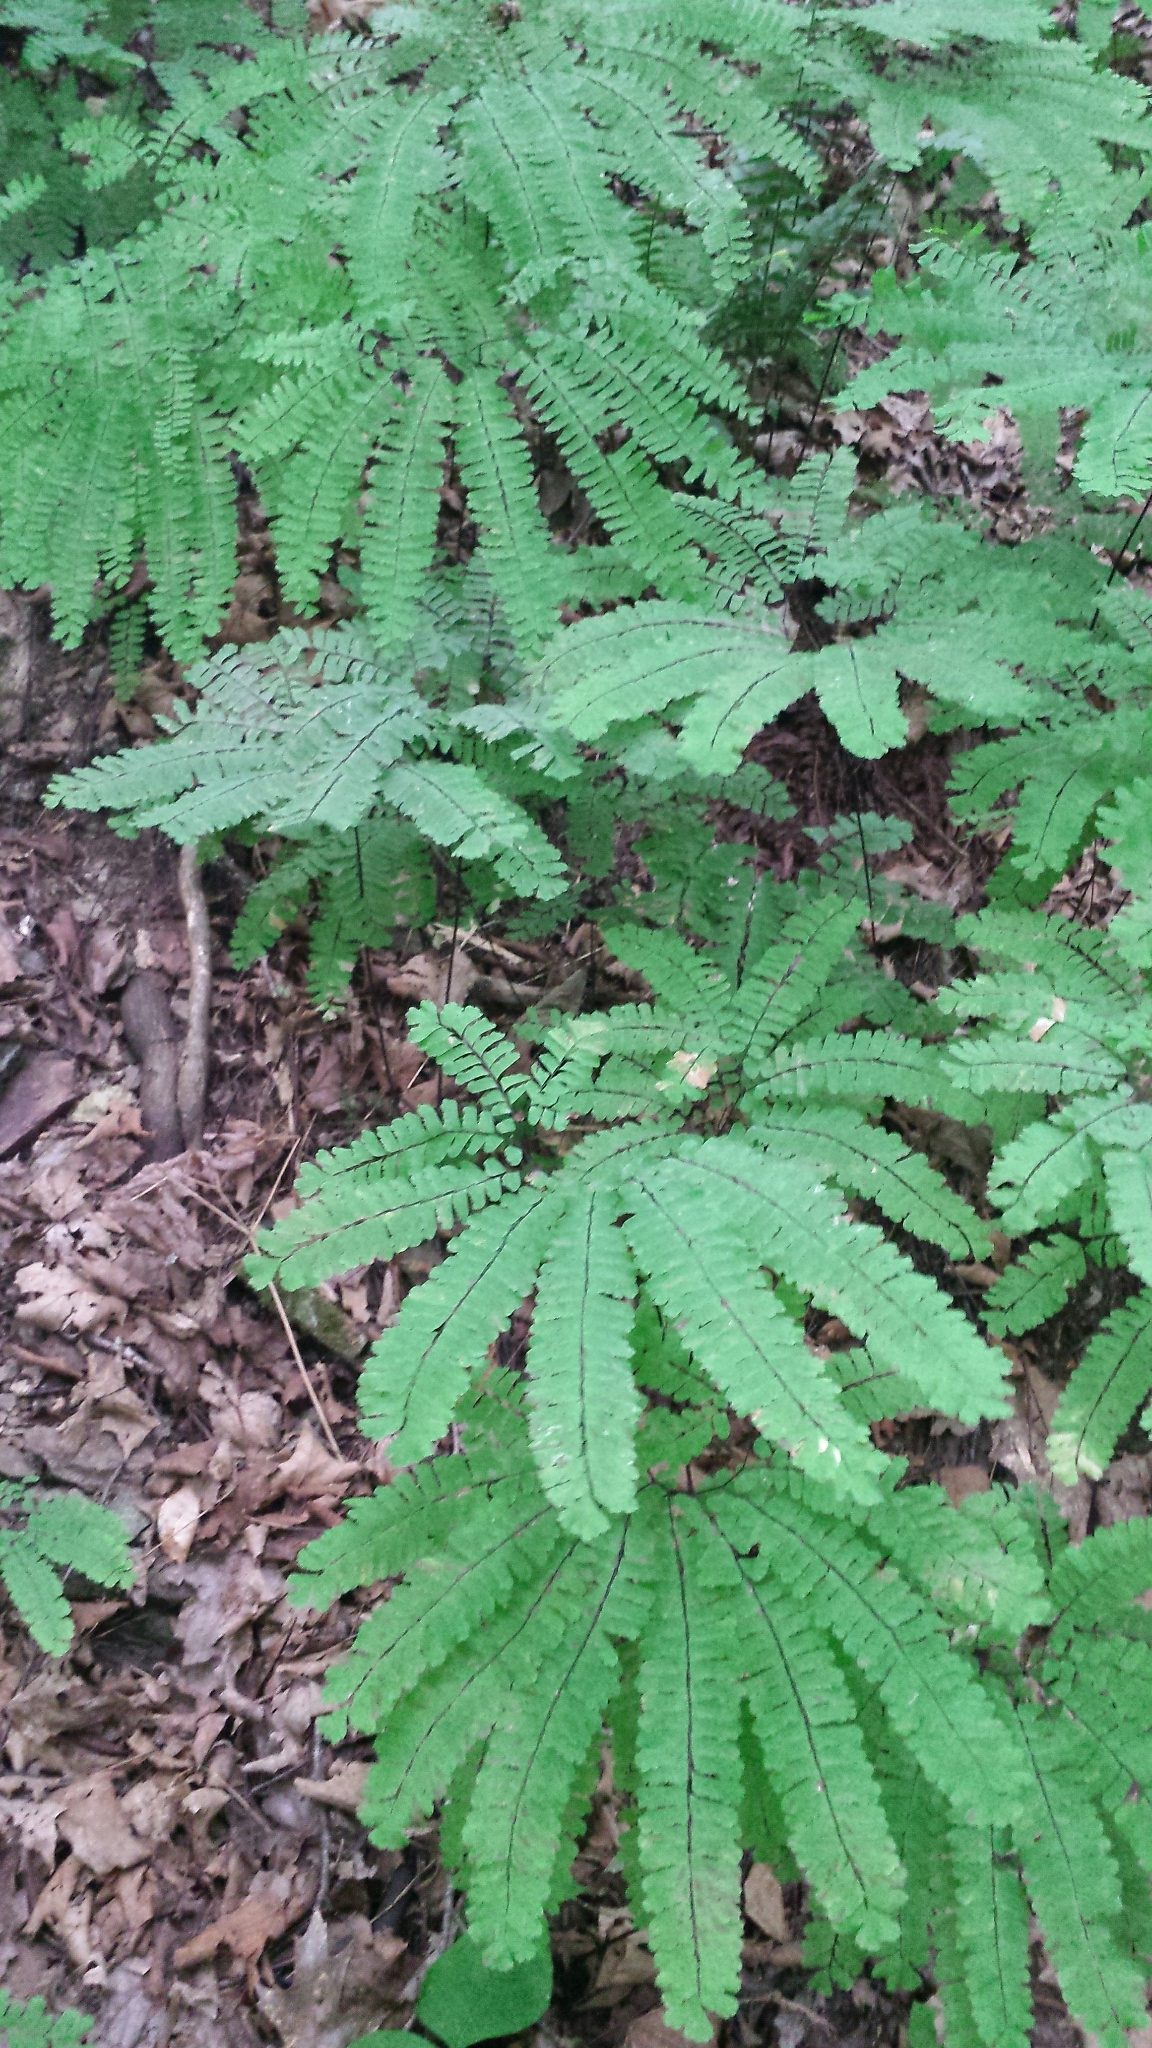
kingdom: Plantae
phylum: Tracheophyta
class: Polypodiopsida
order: Polypodiales
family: Pteridaceae
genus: Adiantum
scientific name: Adiantum pedatum
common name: Five-finger fern
